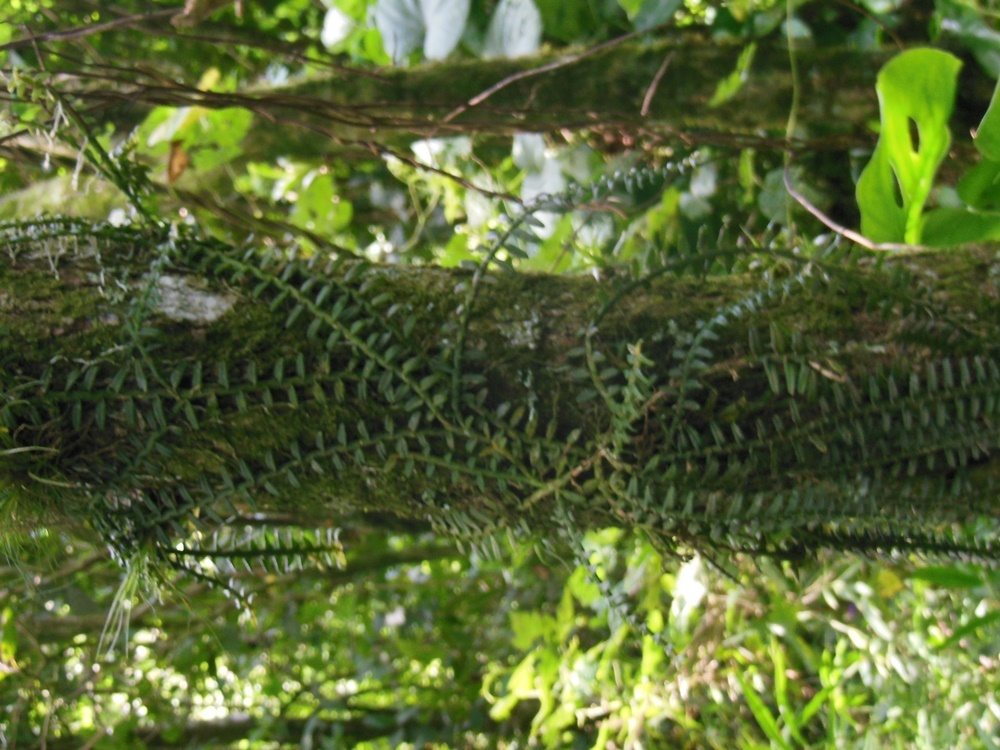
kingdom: Plantae
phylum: Tracheophyta
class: Liliopsida
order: Asparagales
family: Orchidaceae
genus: Dichaea
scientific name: Dichaea squarrosa
